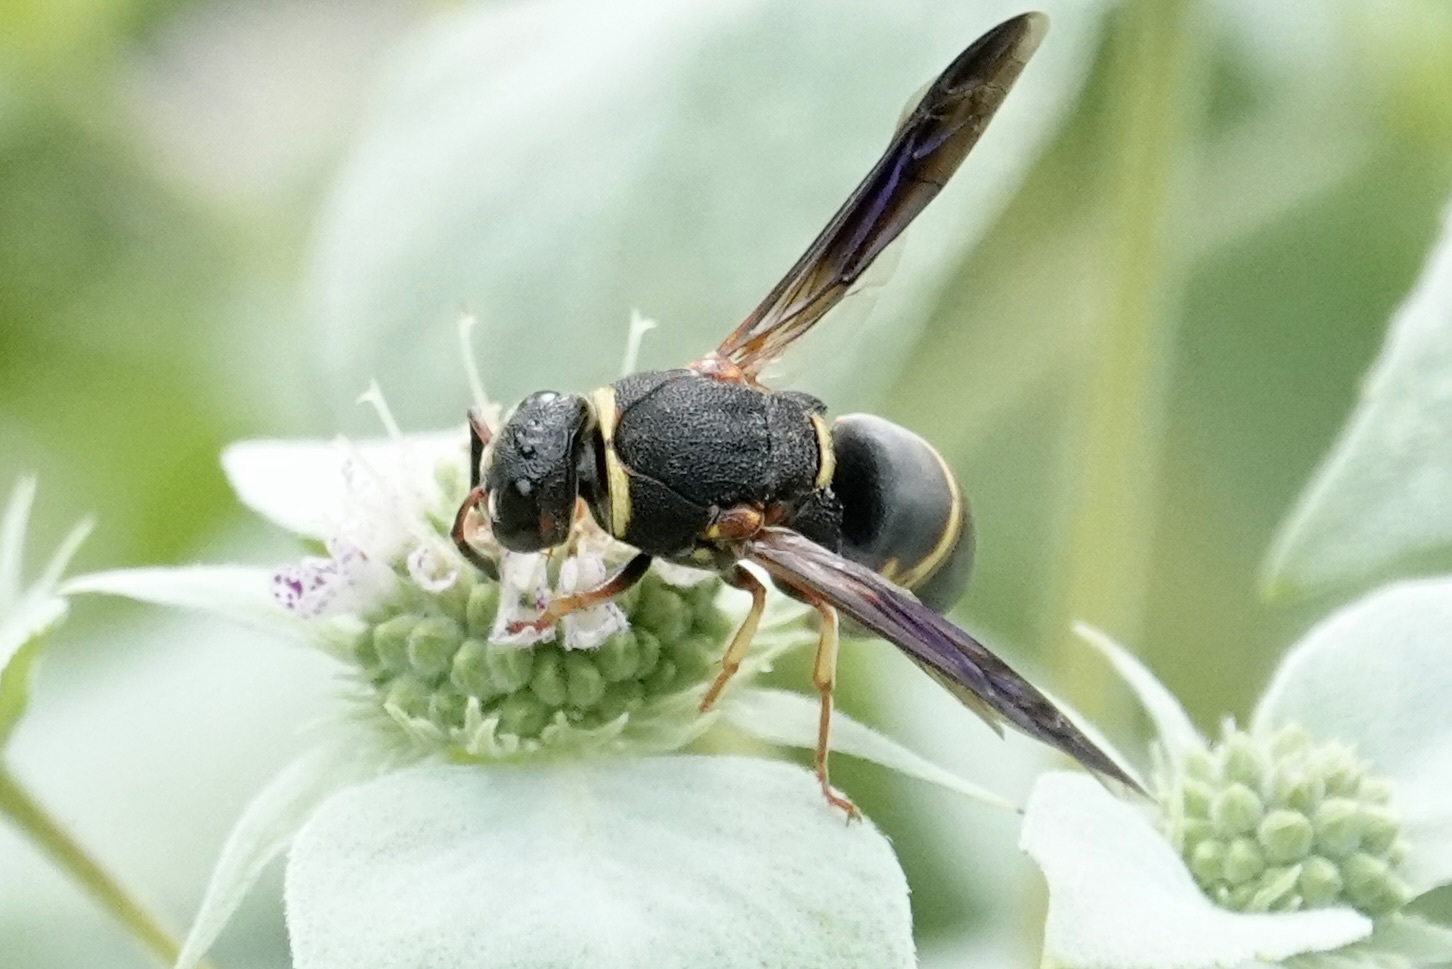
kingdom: Animalia
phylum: Arthropoda
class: Insecta
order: Hymenoptera
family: Eumenidae
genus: Euodynerus
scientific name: Euodynerus hidalgo
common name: Wasp
